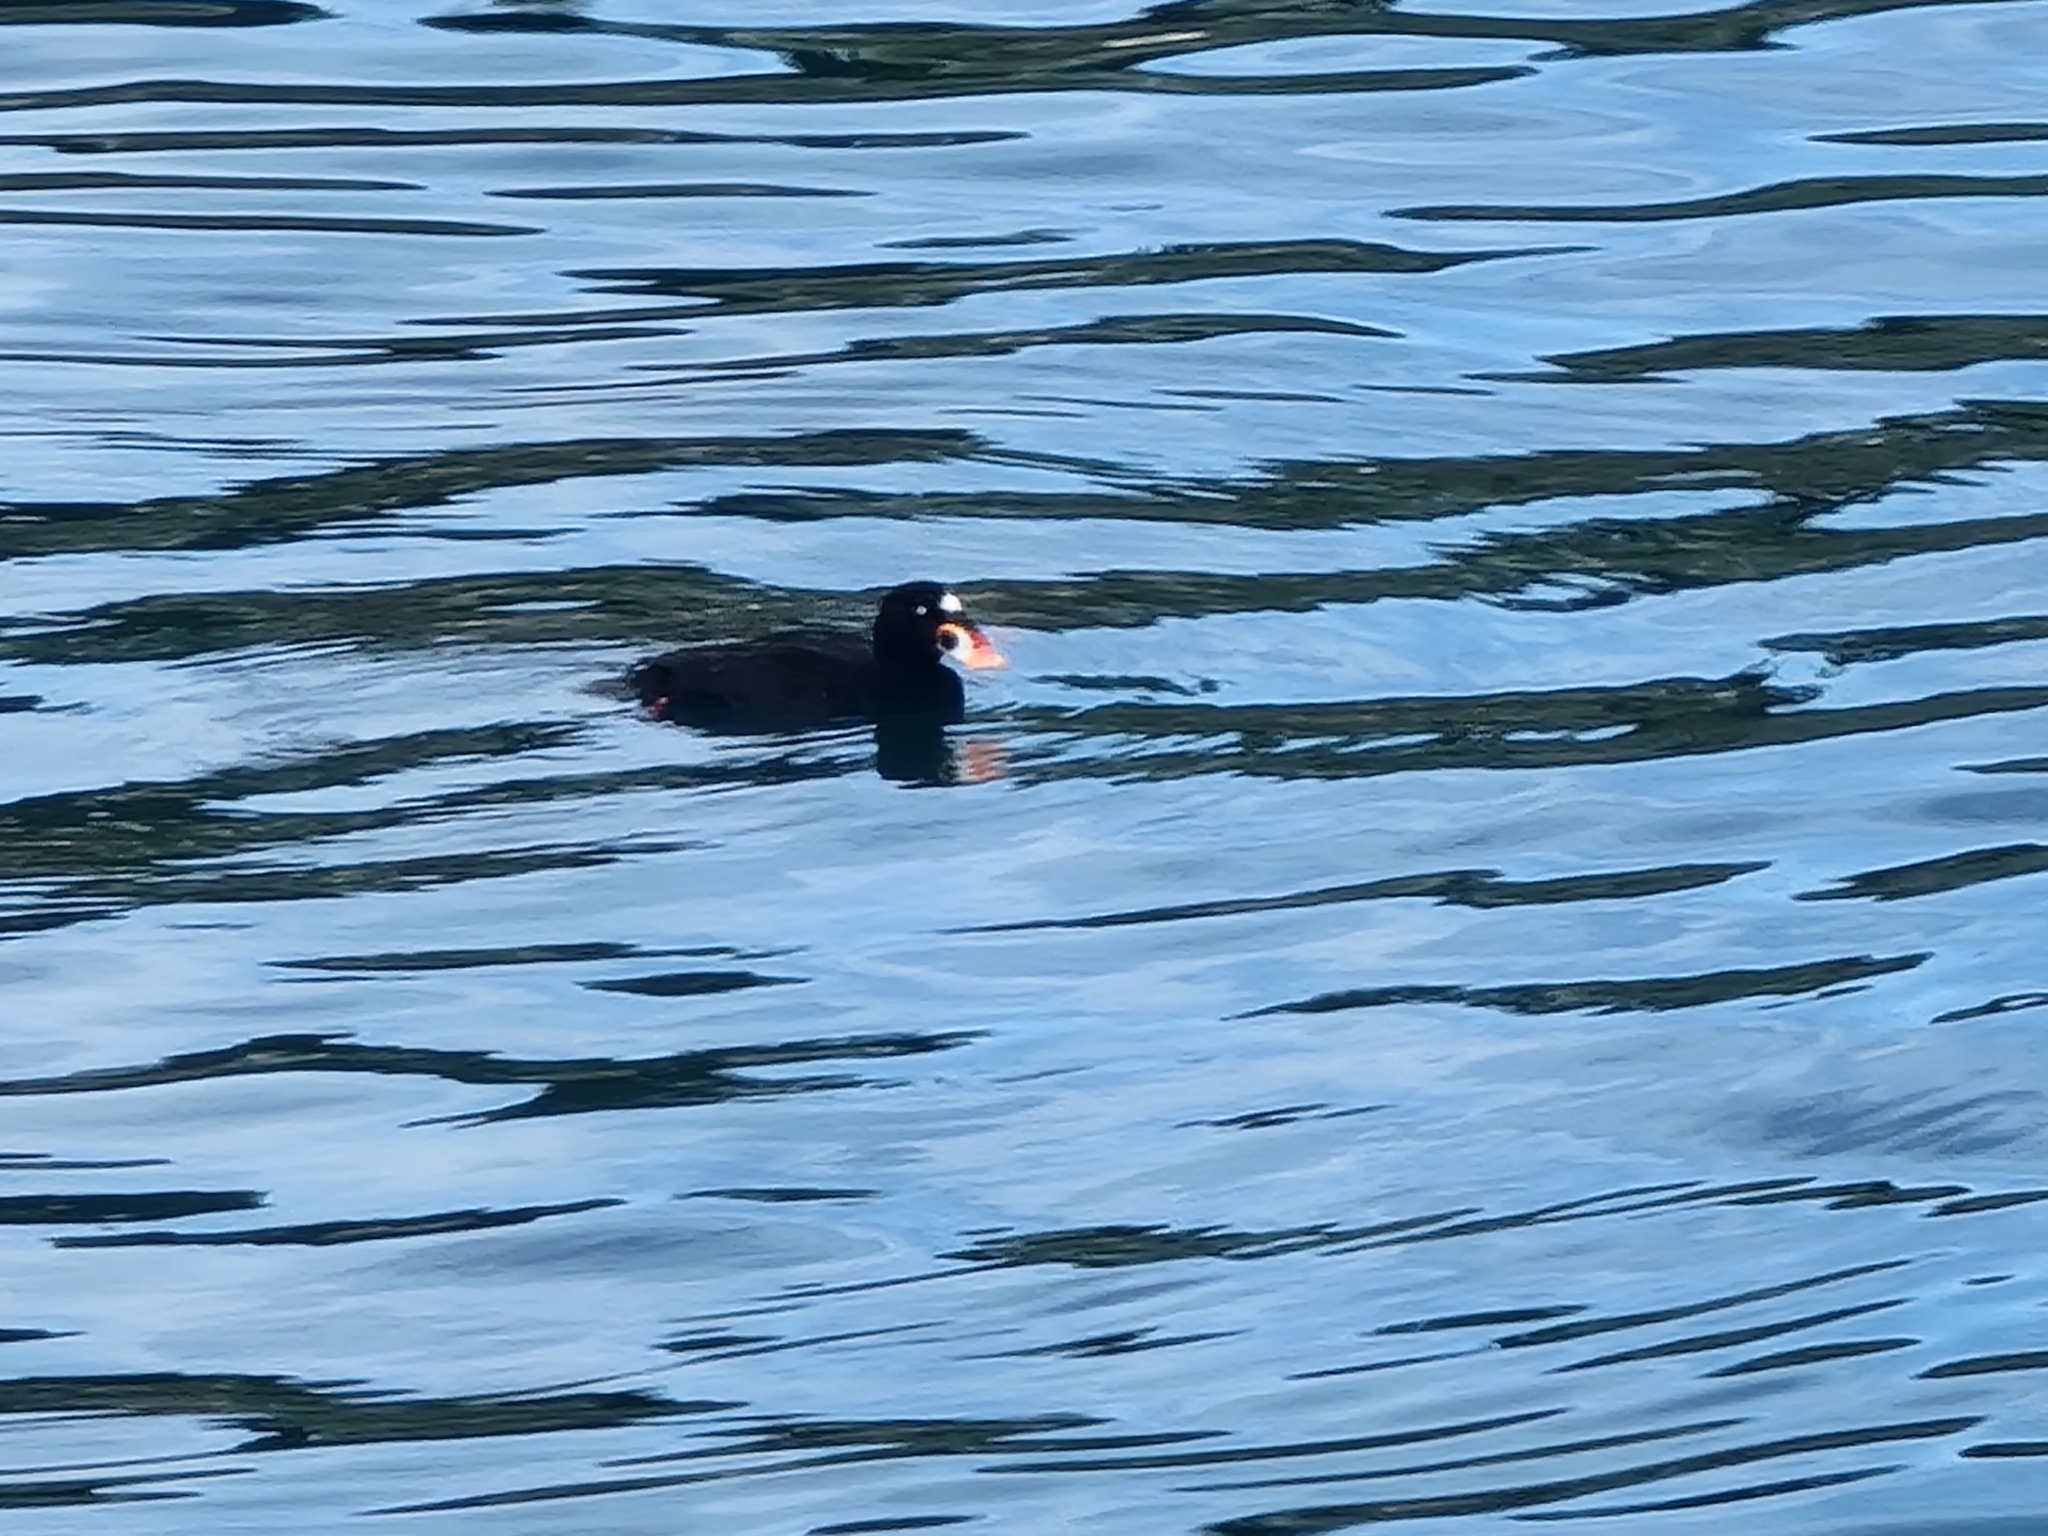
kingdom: Animalia
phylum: Chordata
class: Aves
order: Anseriformes
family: Anatidae
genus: Melanitta
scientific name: Melanitta perspicillata
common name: Surf scoter
